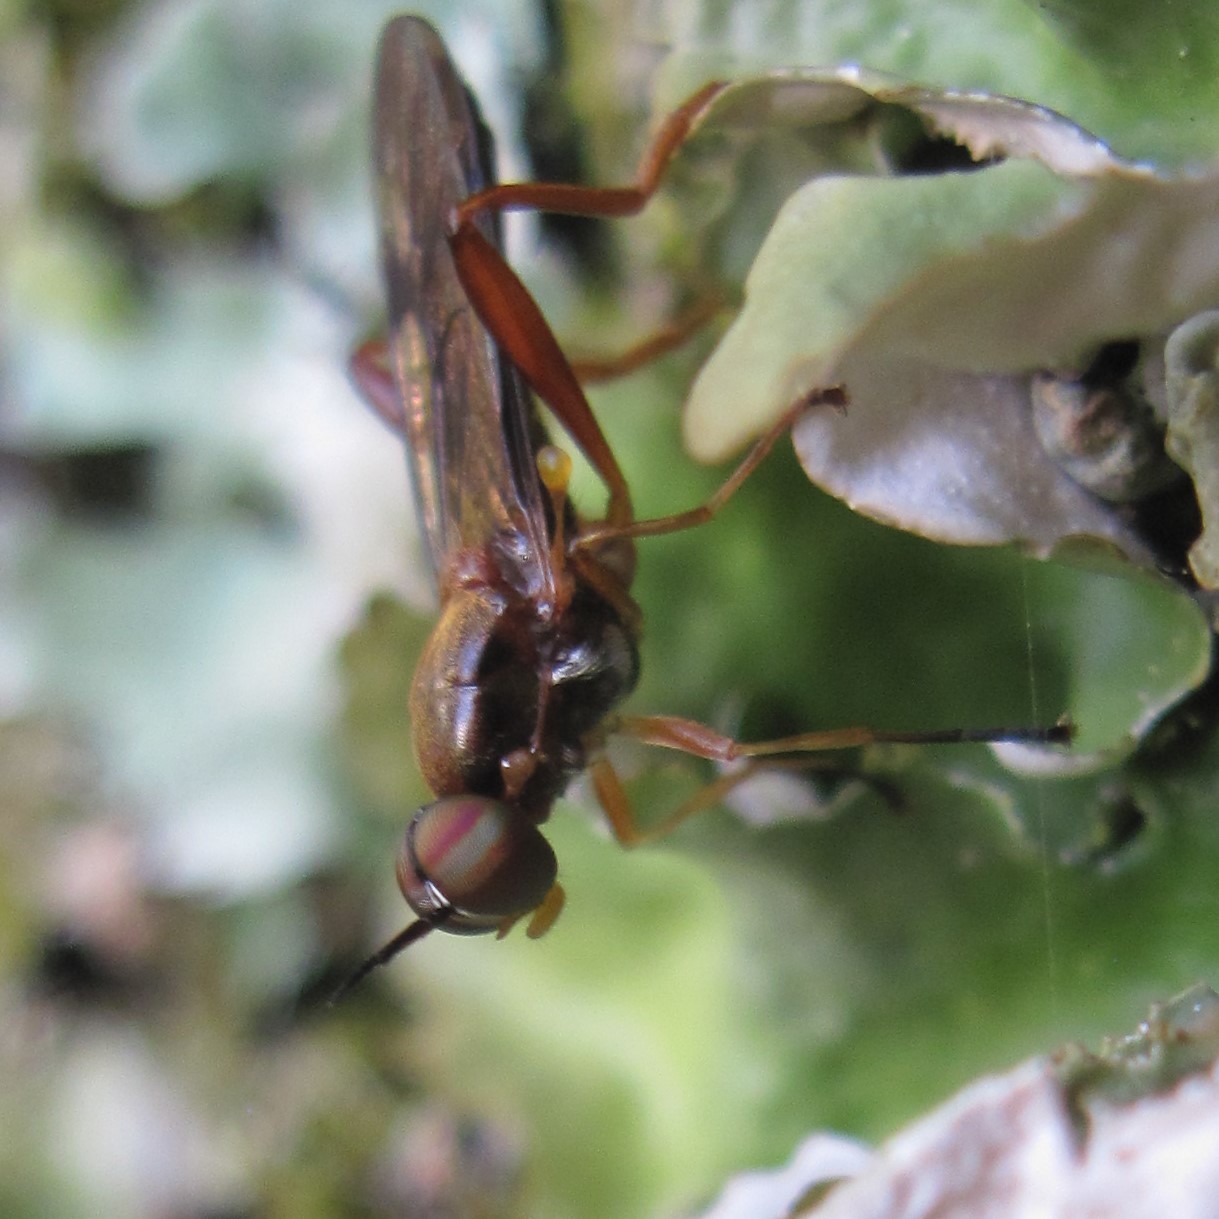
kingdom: Animalia
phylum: Arthropoda
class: Insecta
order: Diptera
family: Stratiomyidae
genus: Benhamyia
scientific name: Benhamyia straznitzkii
